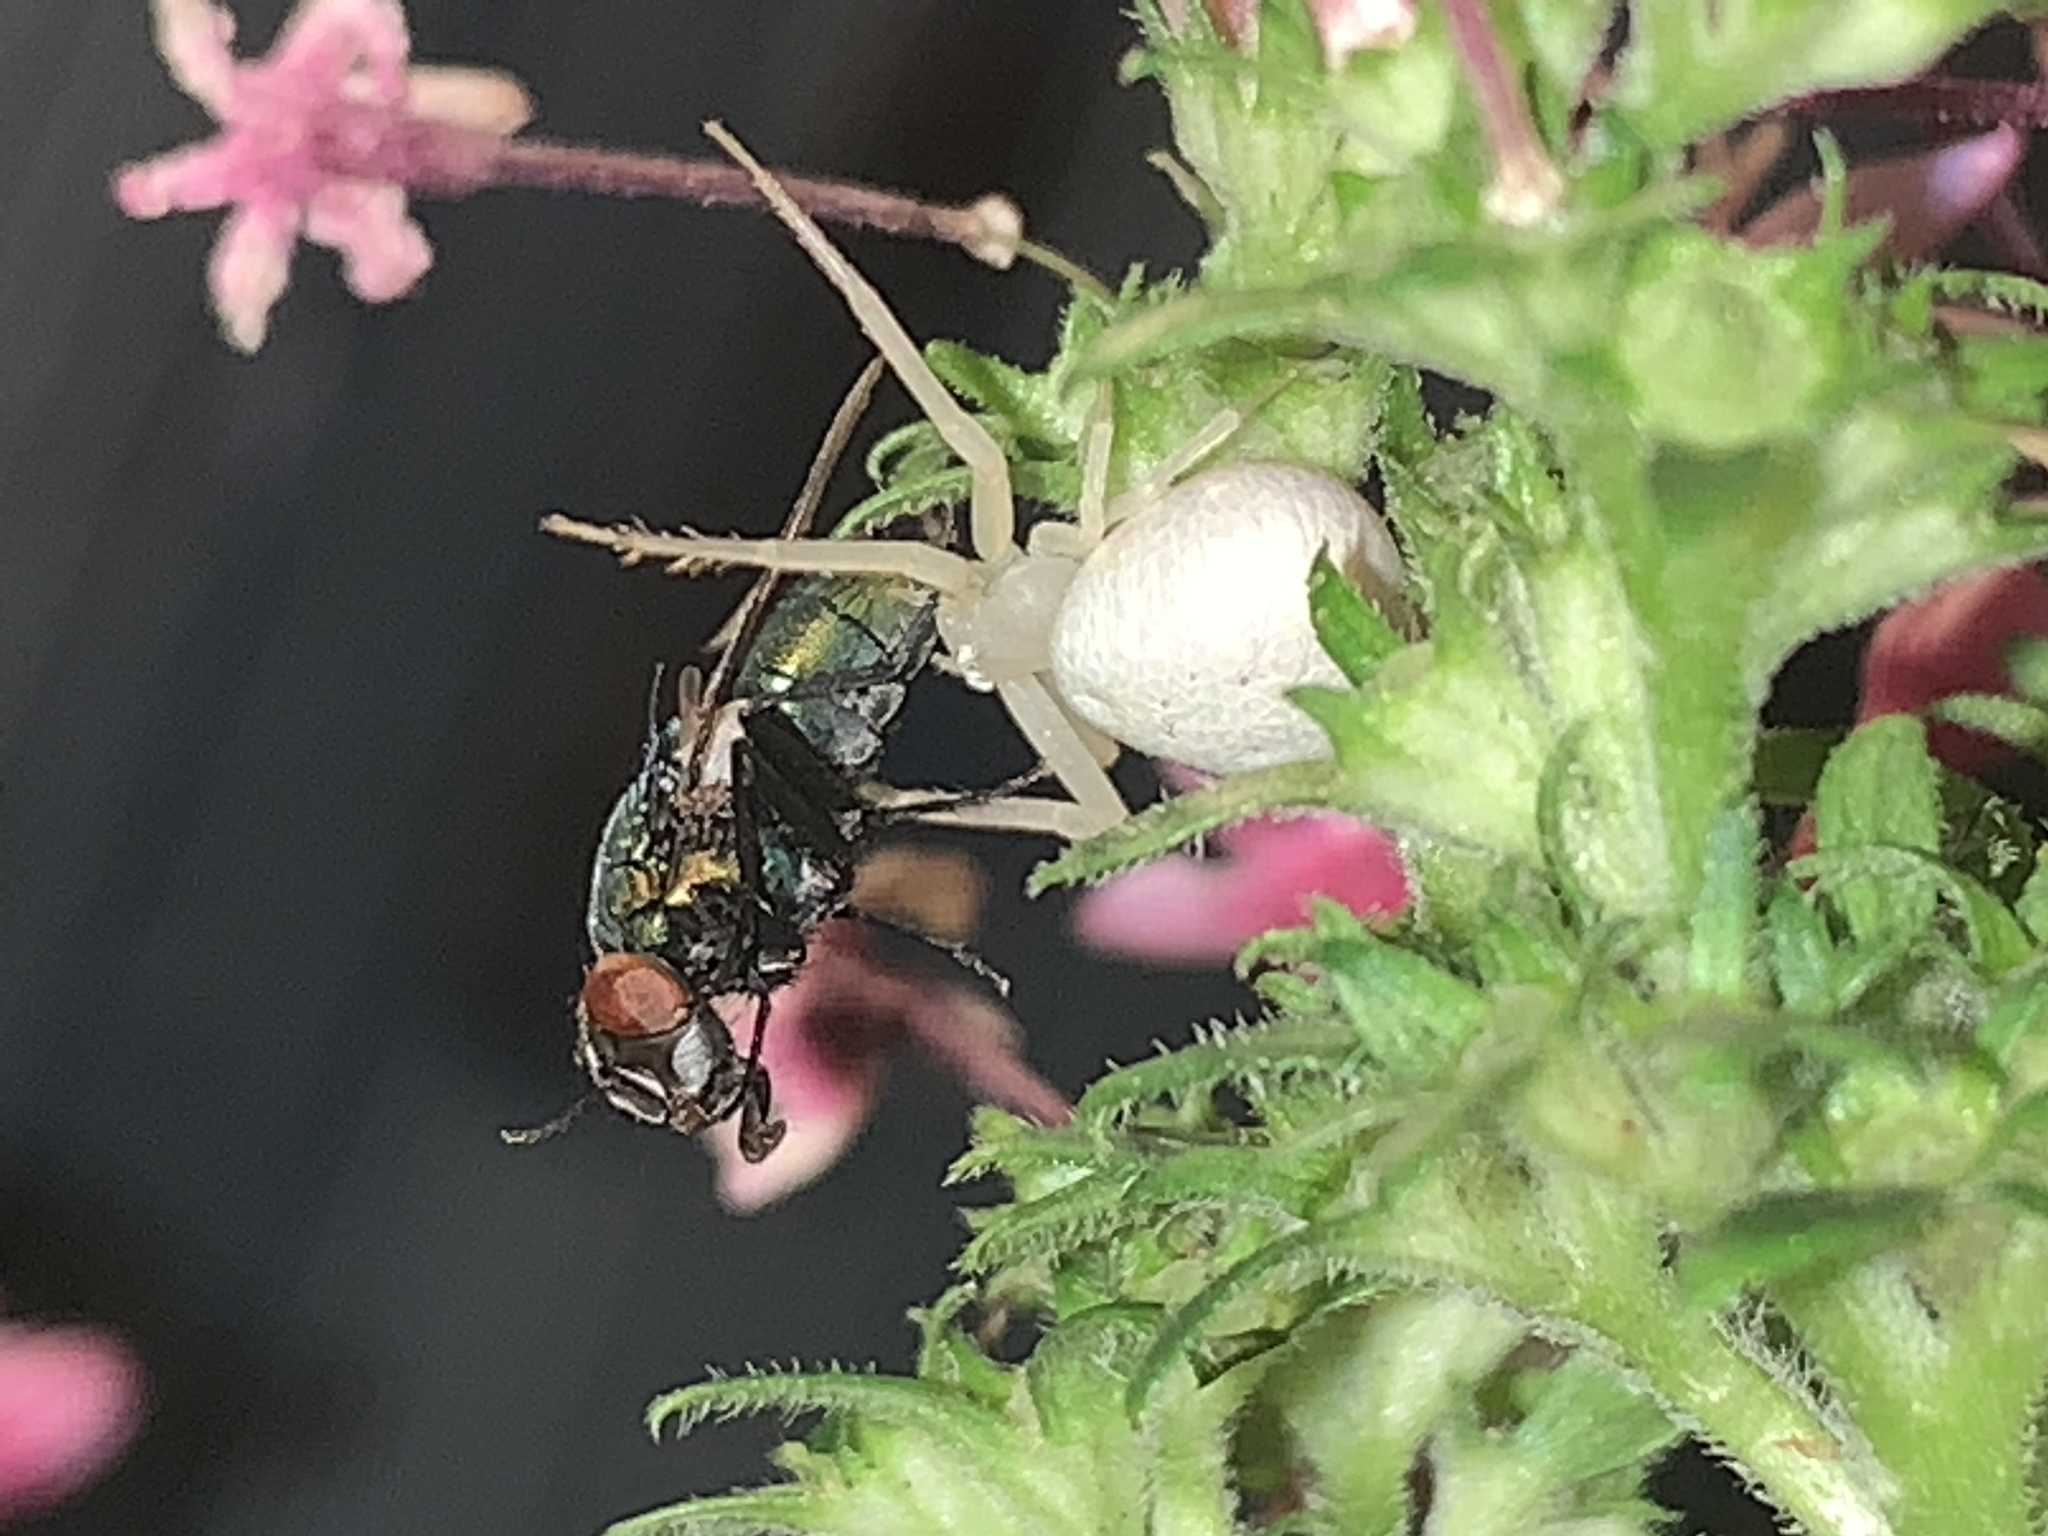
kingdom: Animalia
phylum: Arthropoda
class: Arachnida
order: Araneae
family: Thomisidae
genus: Misumena
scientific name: Misumena vatia
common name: Goldenrod crab spider
